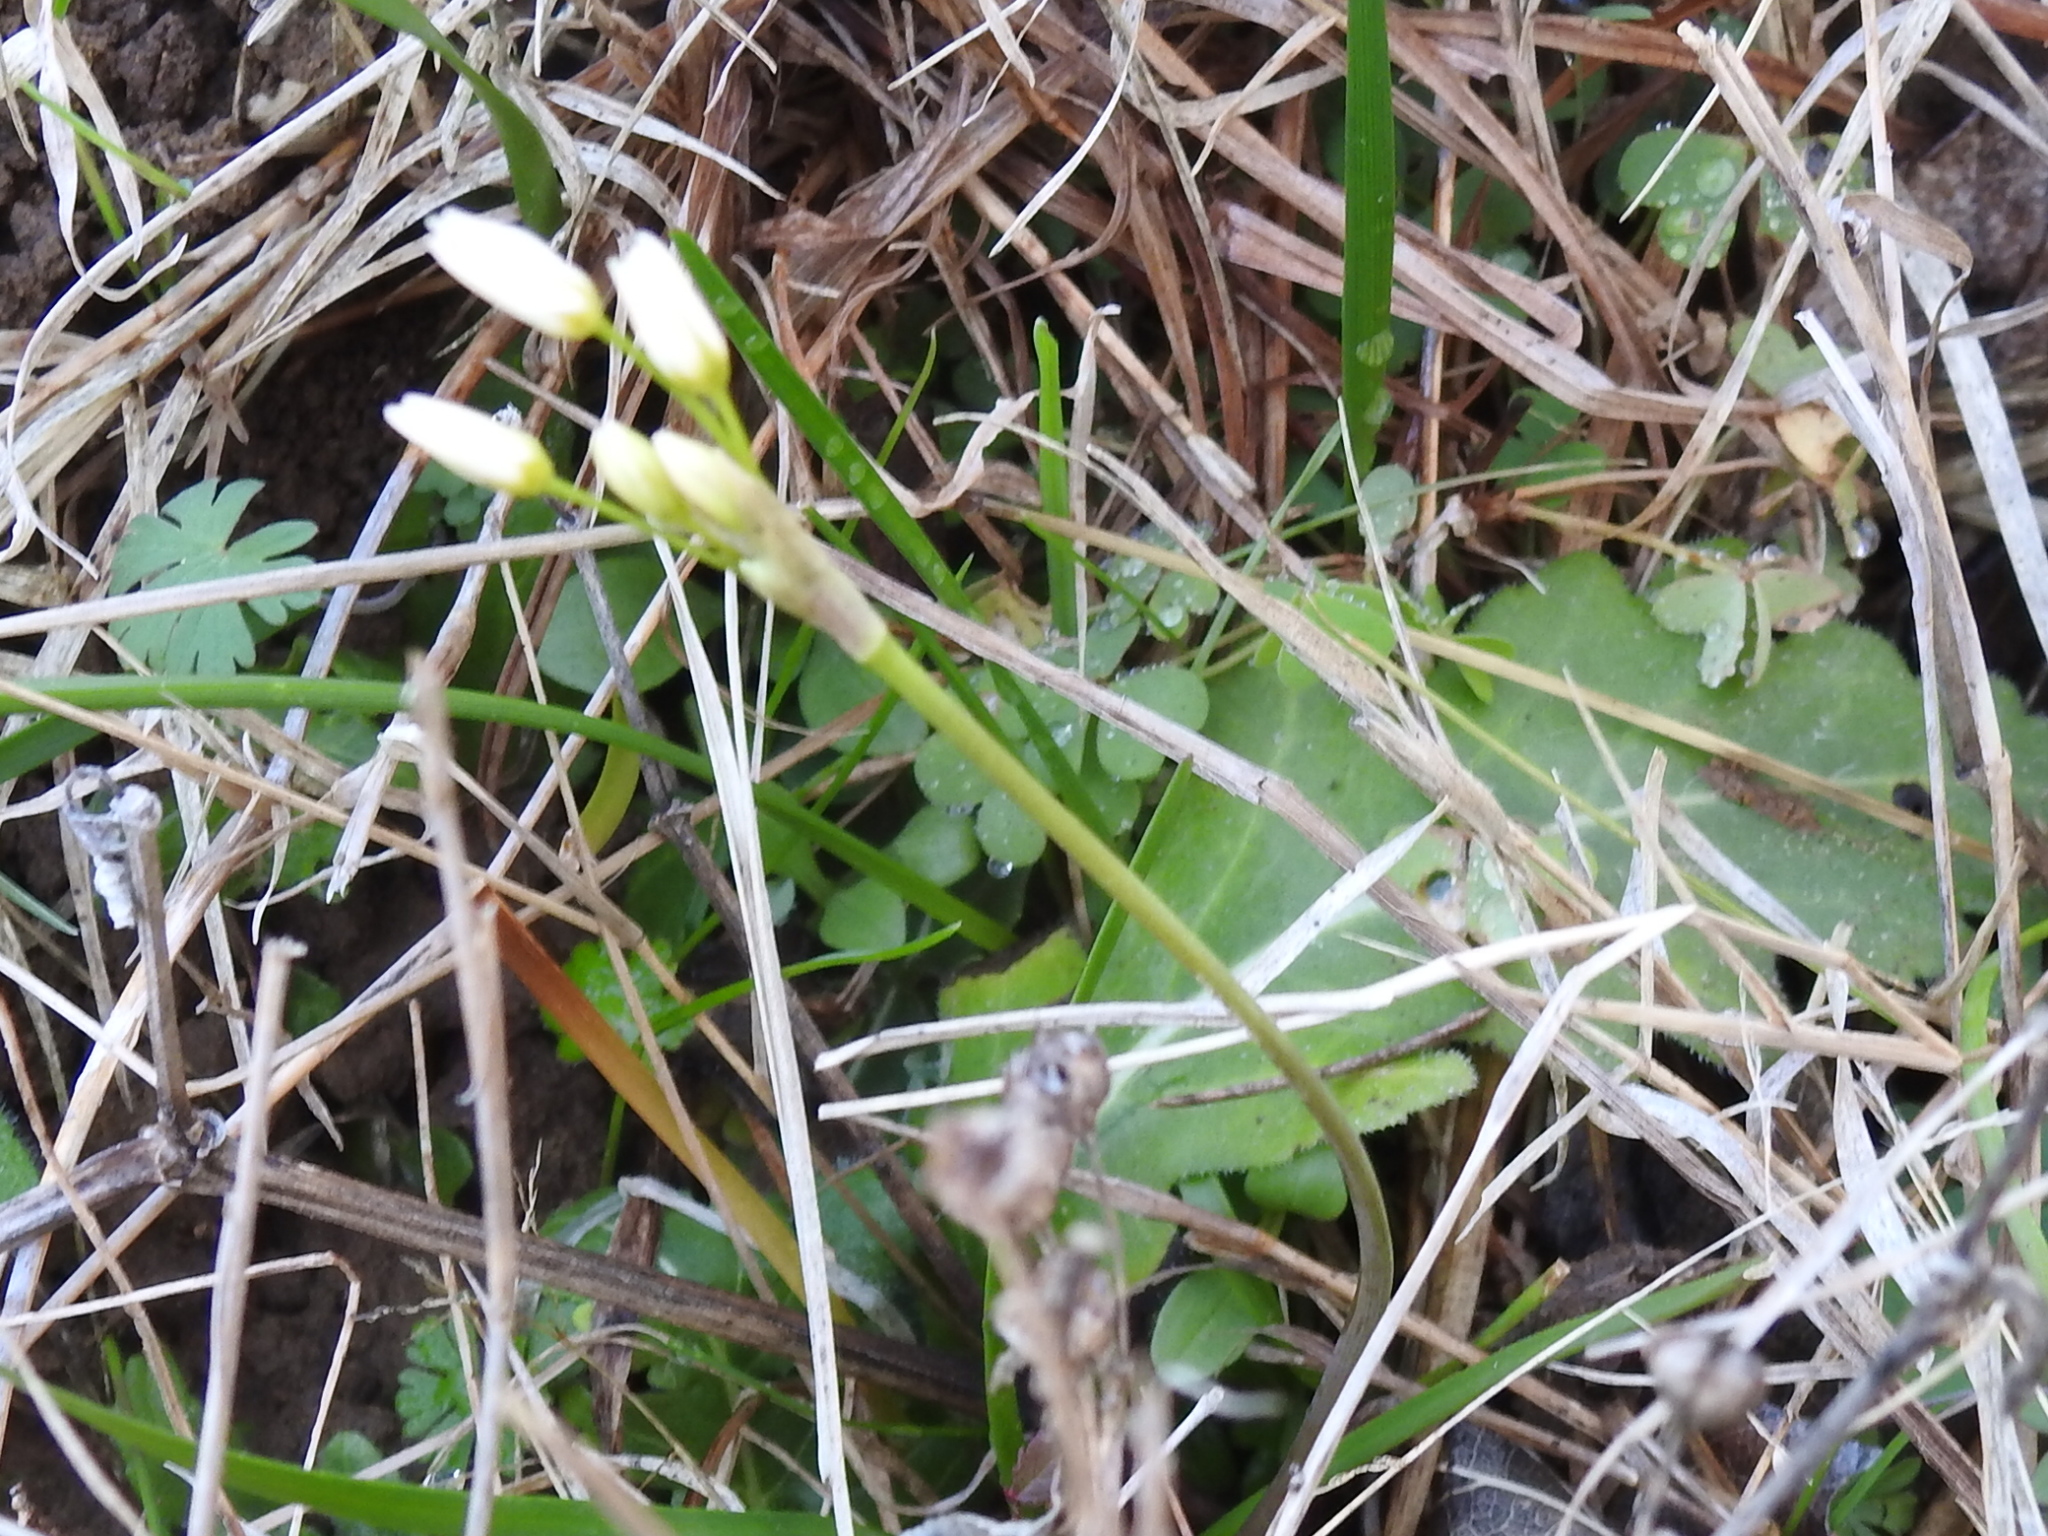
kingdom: Plantae
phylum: Tracheophyta
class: Liliopsida
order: Asparagales
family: Amaryllidaceae
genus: Nothoscordum
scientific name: Nothoscordum bivalve
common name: Crow-poison
